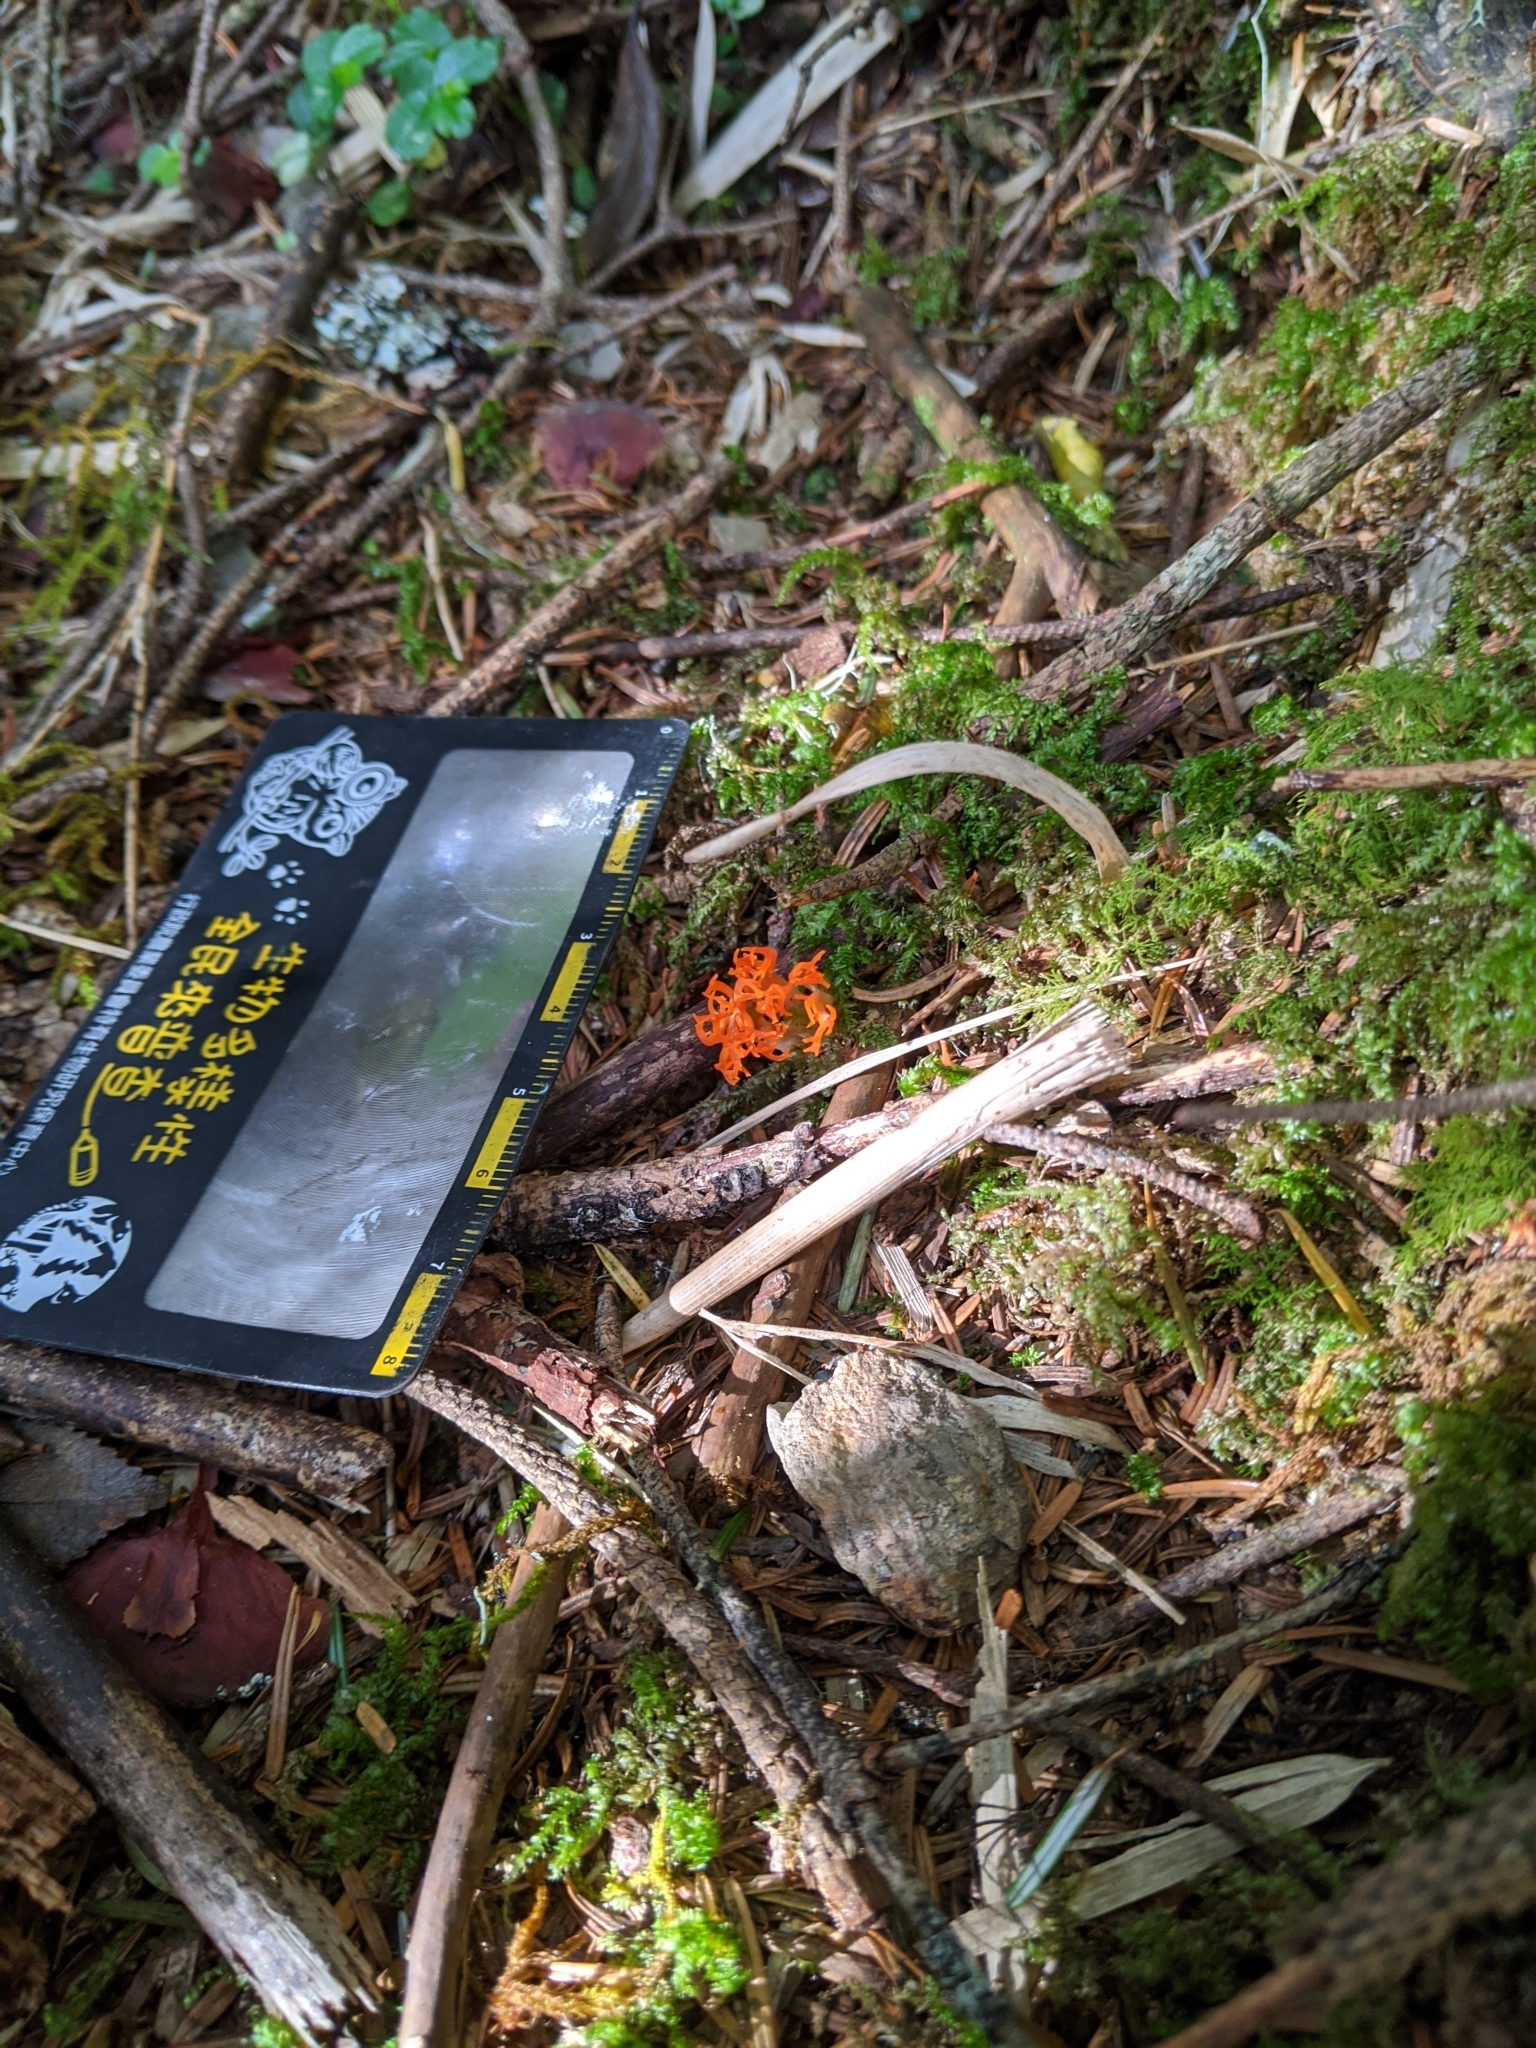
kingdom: Fungi
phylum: Basidiomycota
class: Dacrymycetes
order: Dacrymycetales
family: Dacrymycetaceae
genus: Calocera
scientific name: Calocera viscosa
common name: Yellow stagshorn
